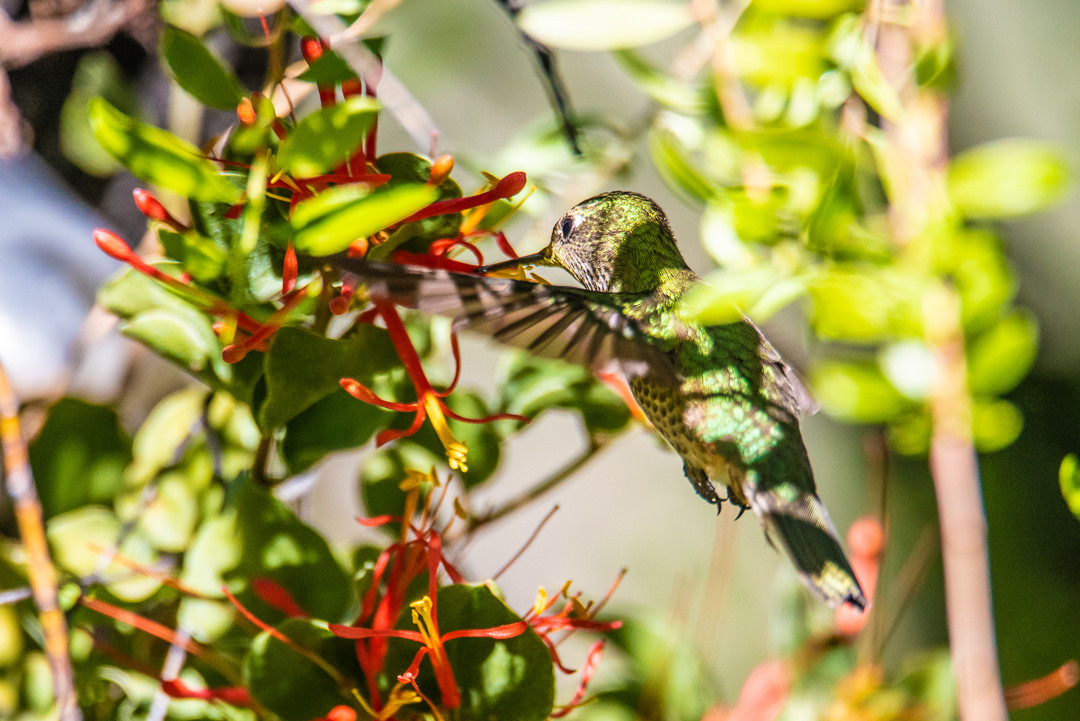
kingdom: Animalia
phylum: Chordata
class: Aves
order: Apodiformes
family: Trochilidae
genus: Sephanoides
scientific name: Sephanoides sephaniodes
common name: Green-backed firecrown
